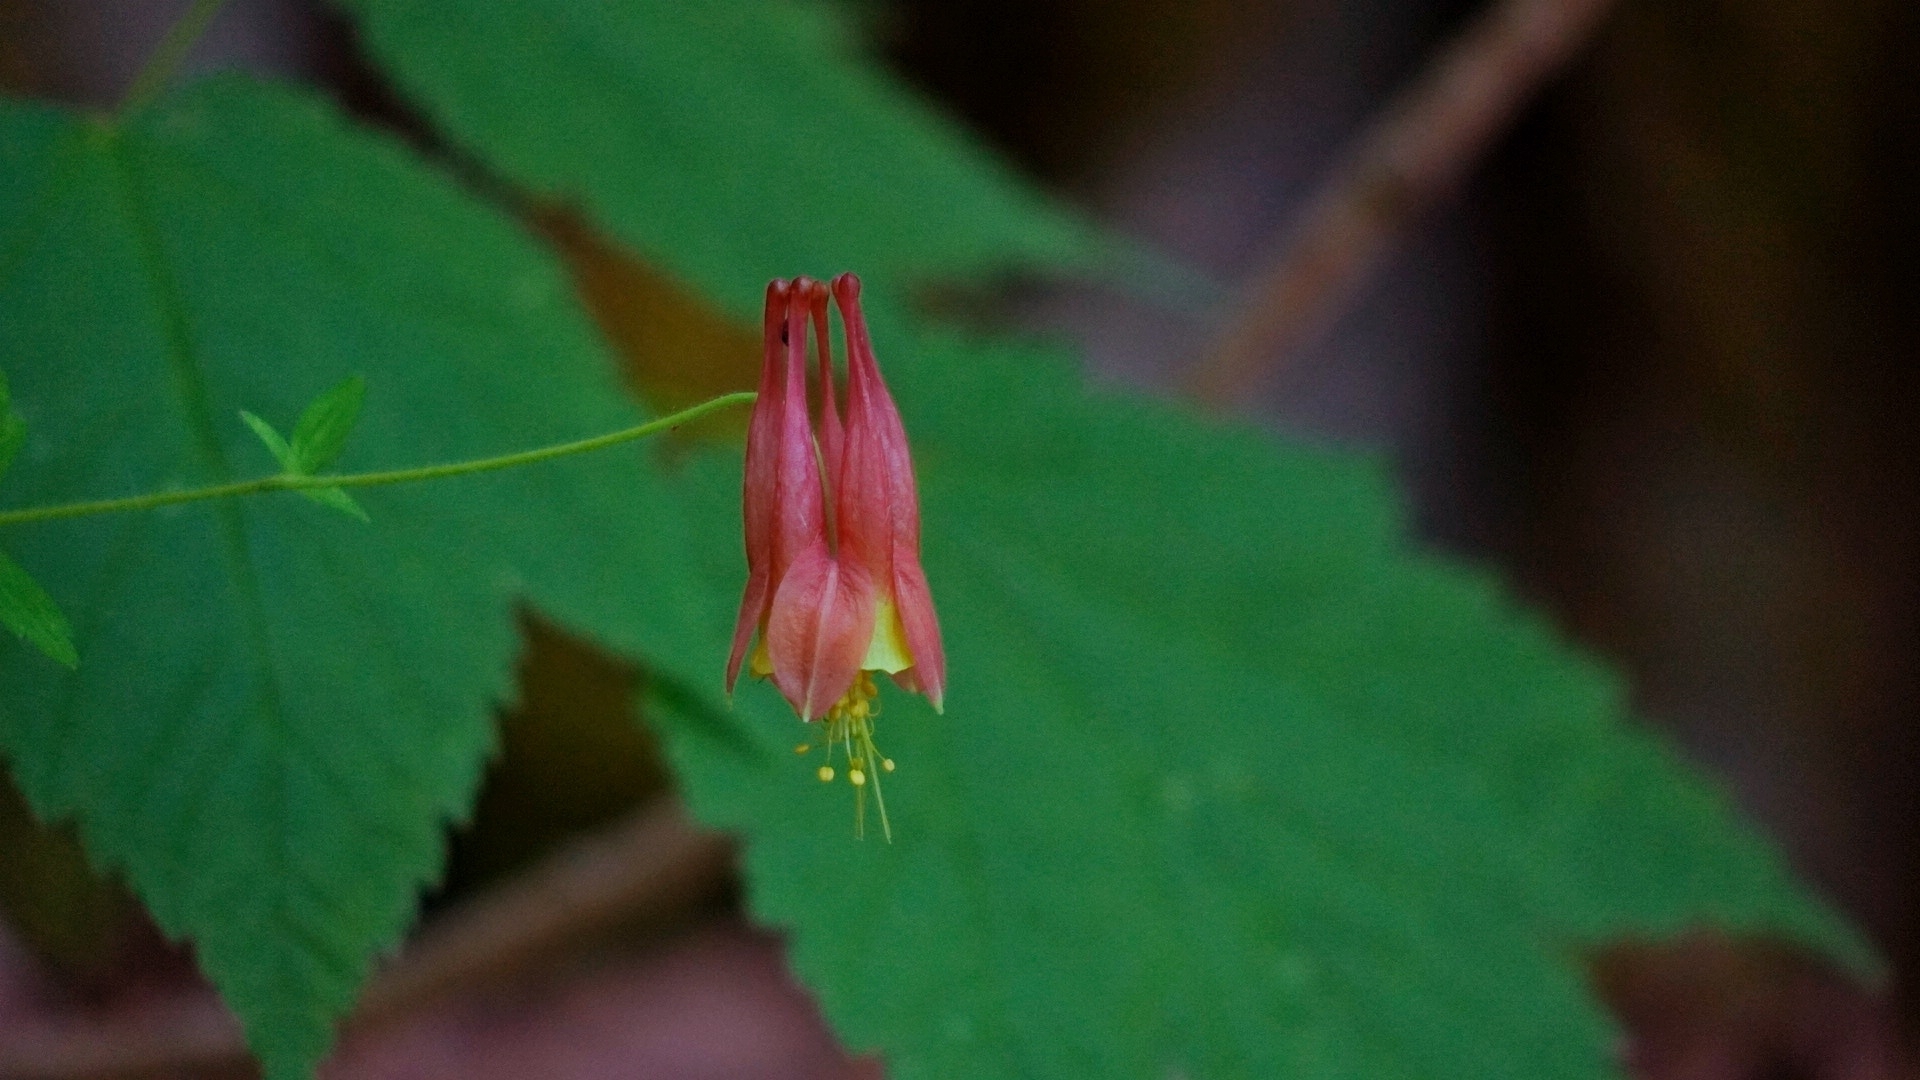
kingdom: Plantae
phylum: Tracheophyta
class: Magnoliopsida
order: Ranunculales
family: Ranunculaceae
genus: Aquilegia
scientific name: Aquilegia canadensis
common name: American columbine
